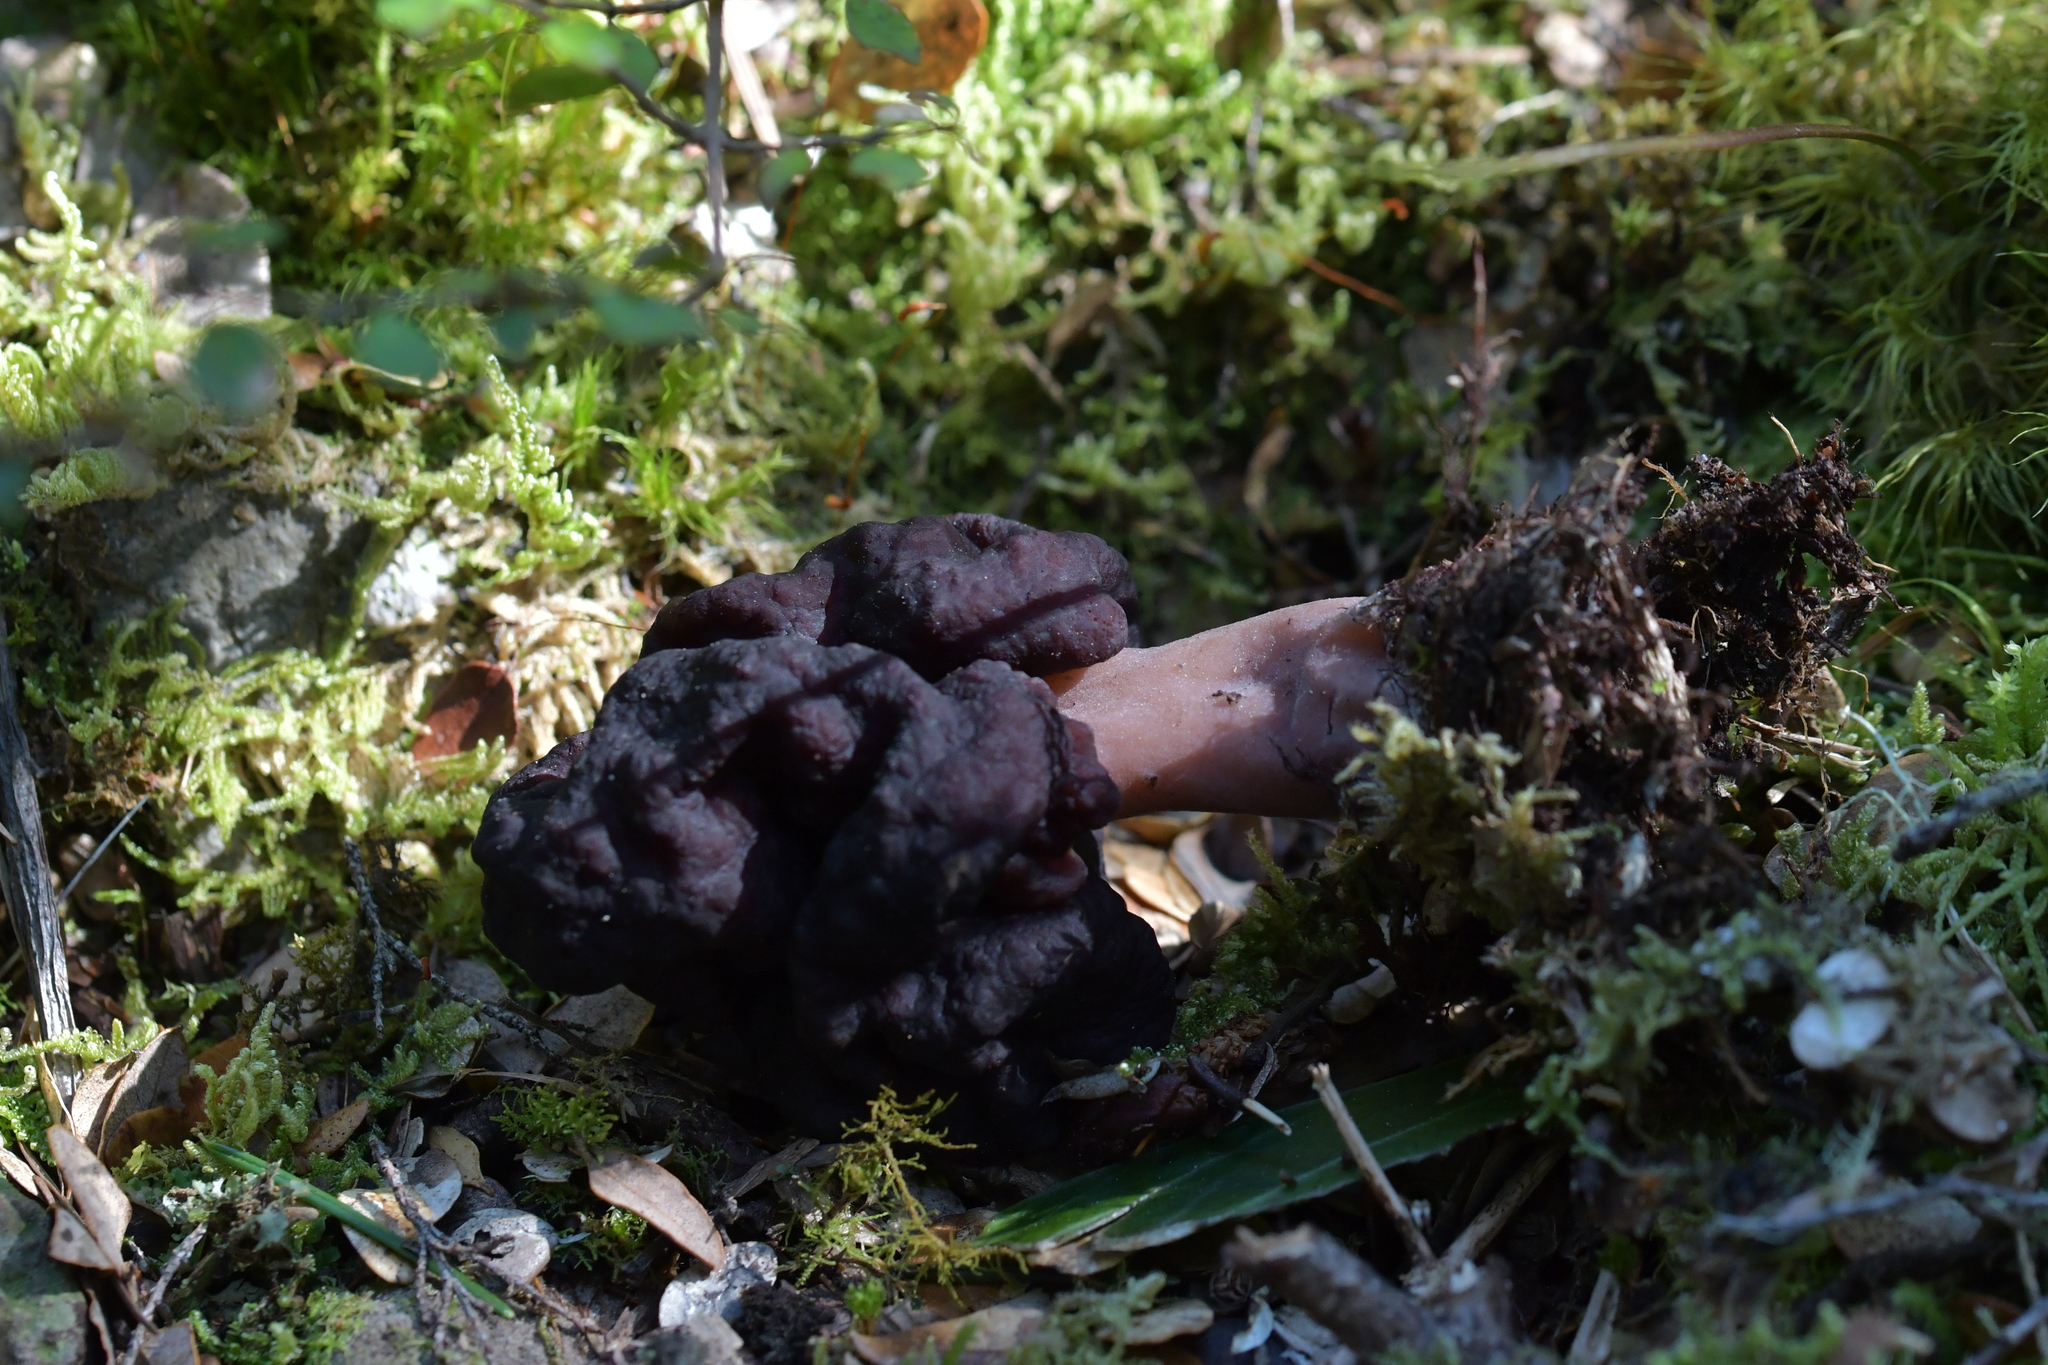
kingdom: Fungi
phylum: Ascomycota
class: Pezizomycetes
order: Pezizales
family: Discinaceae
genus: Gyromitra
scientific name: Gyromitra tasmanica
